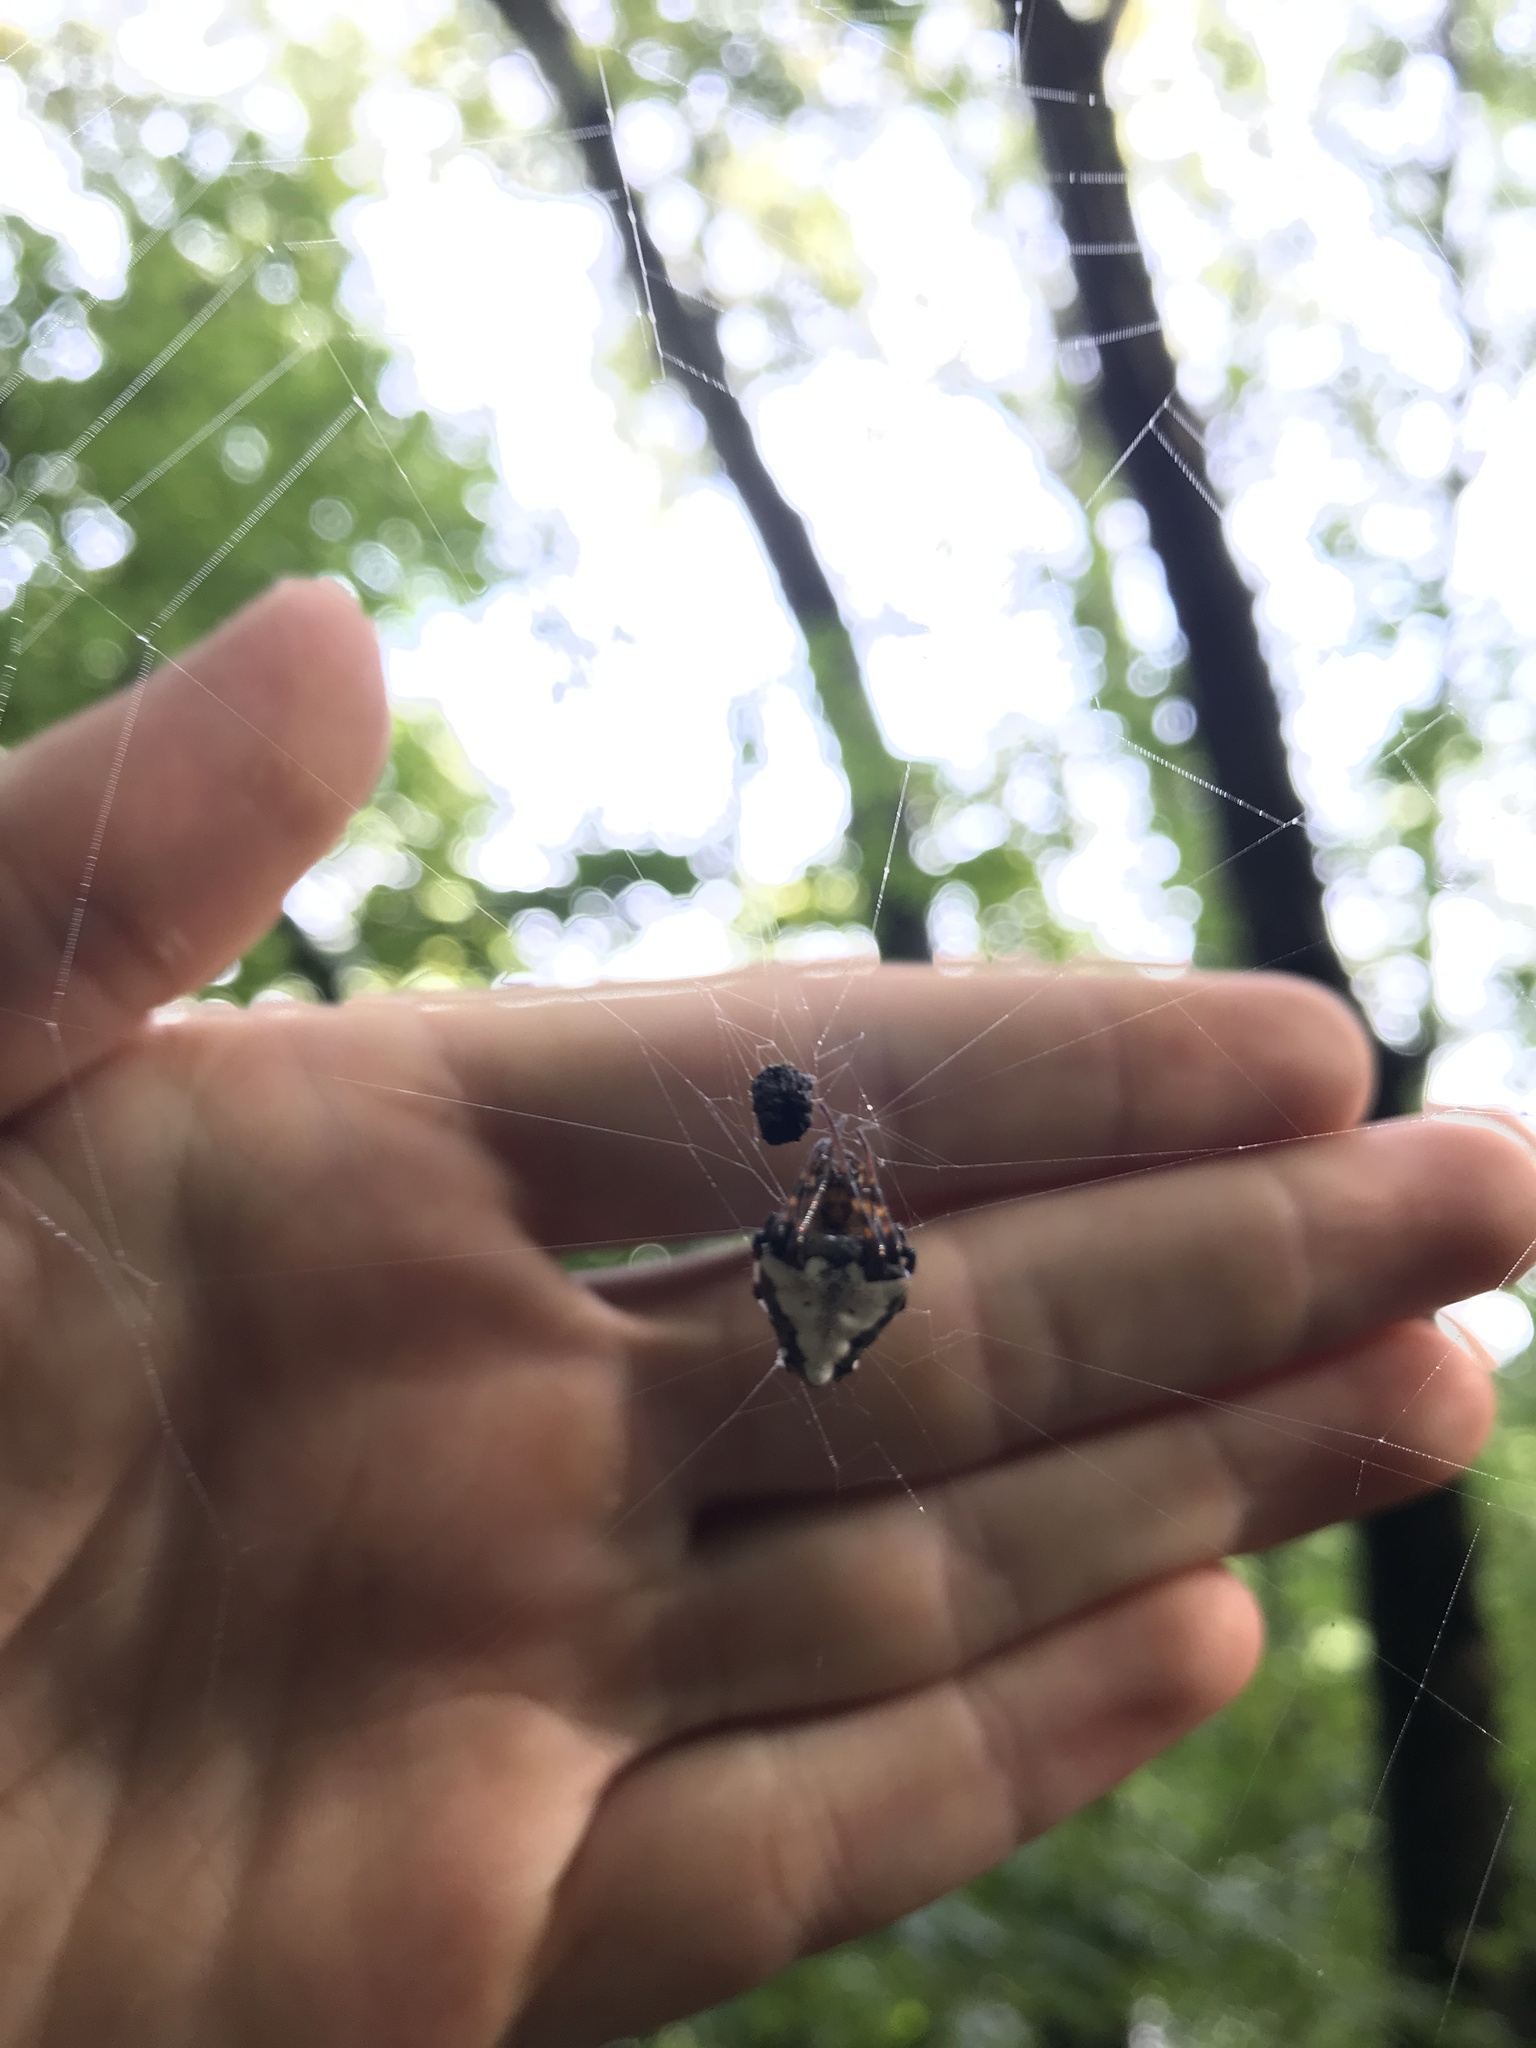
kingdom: Animalia
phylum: Arthropoda
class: Arachnida
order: Araneae
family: Araneidae
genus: Verrucosa
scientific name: Verrucosa arenata
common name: Orb weavers
